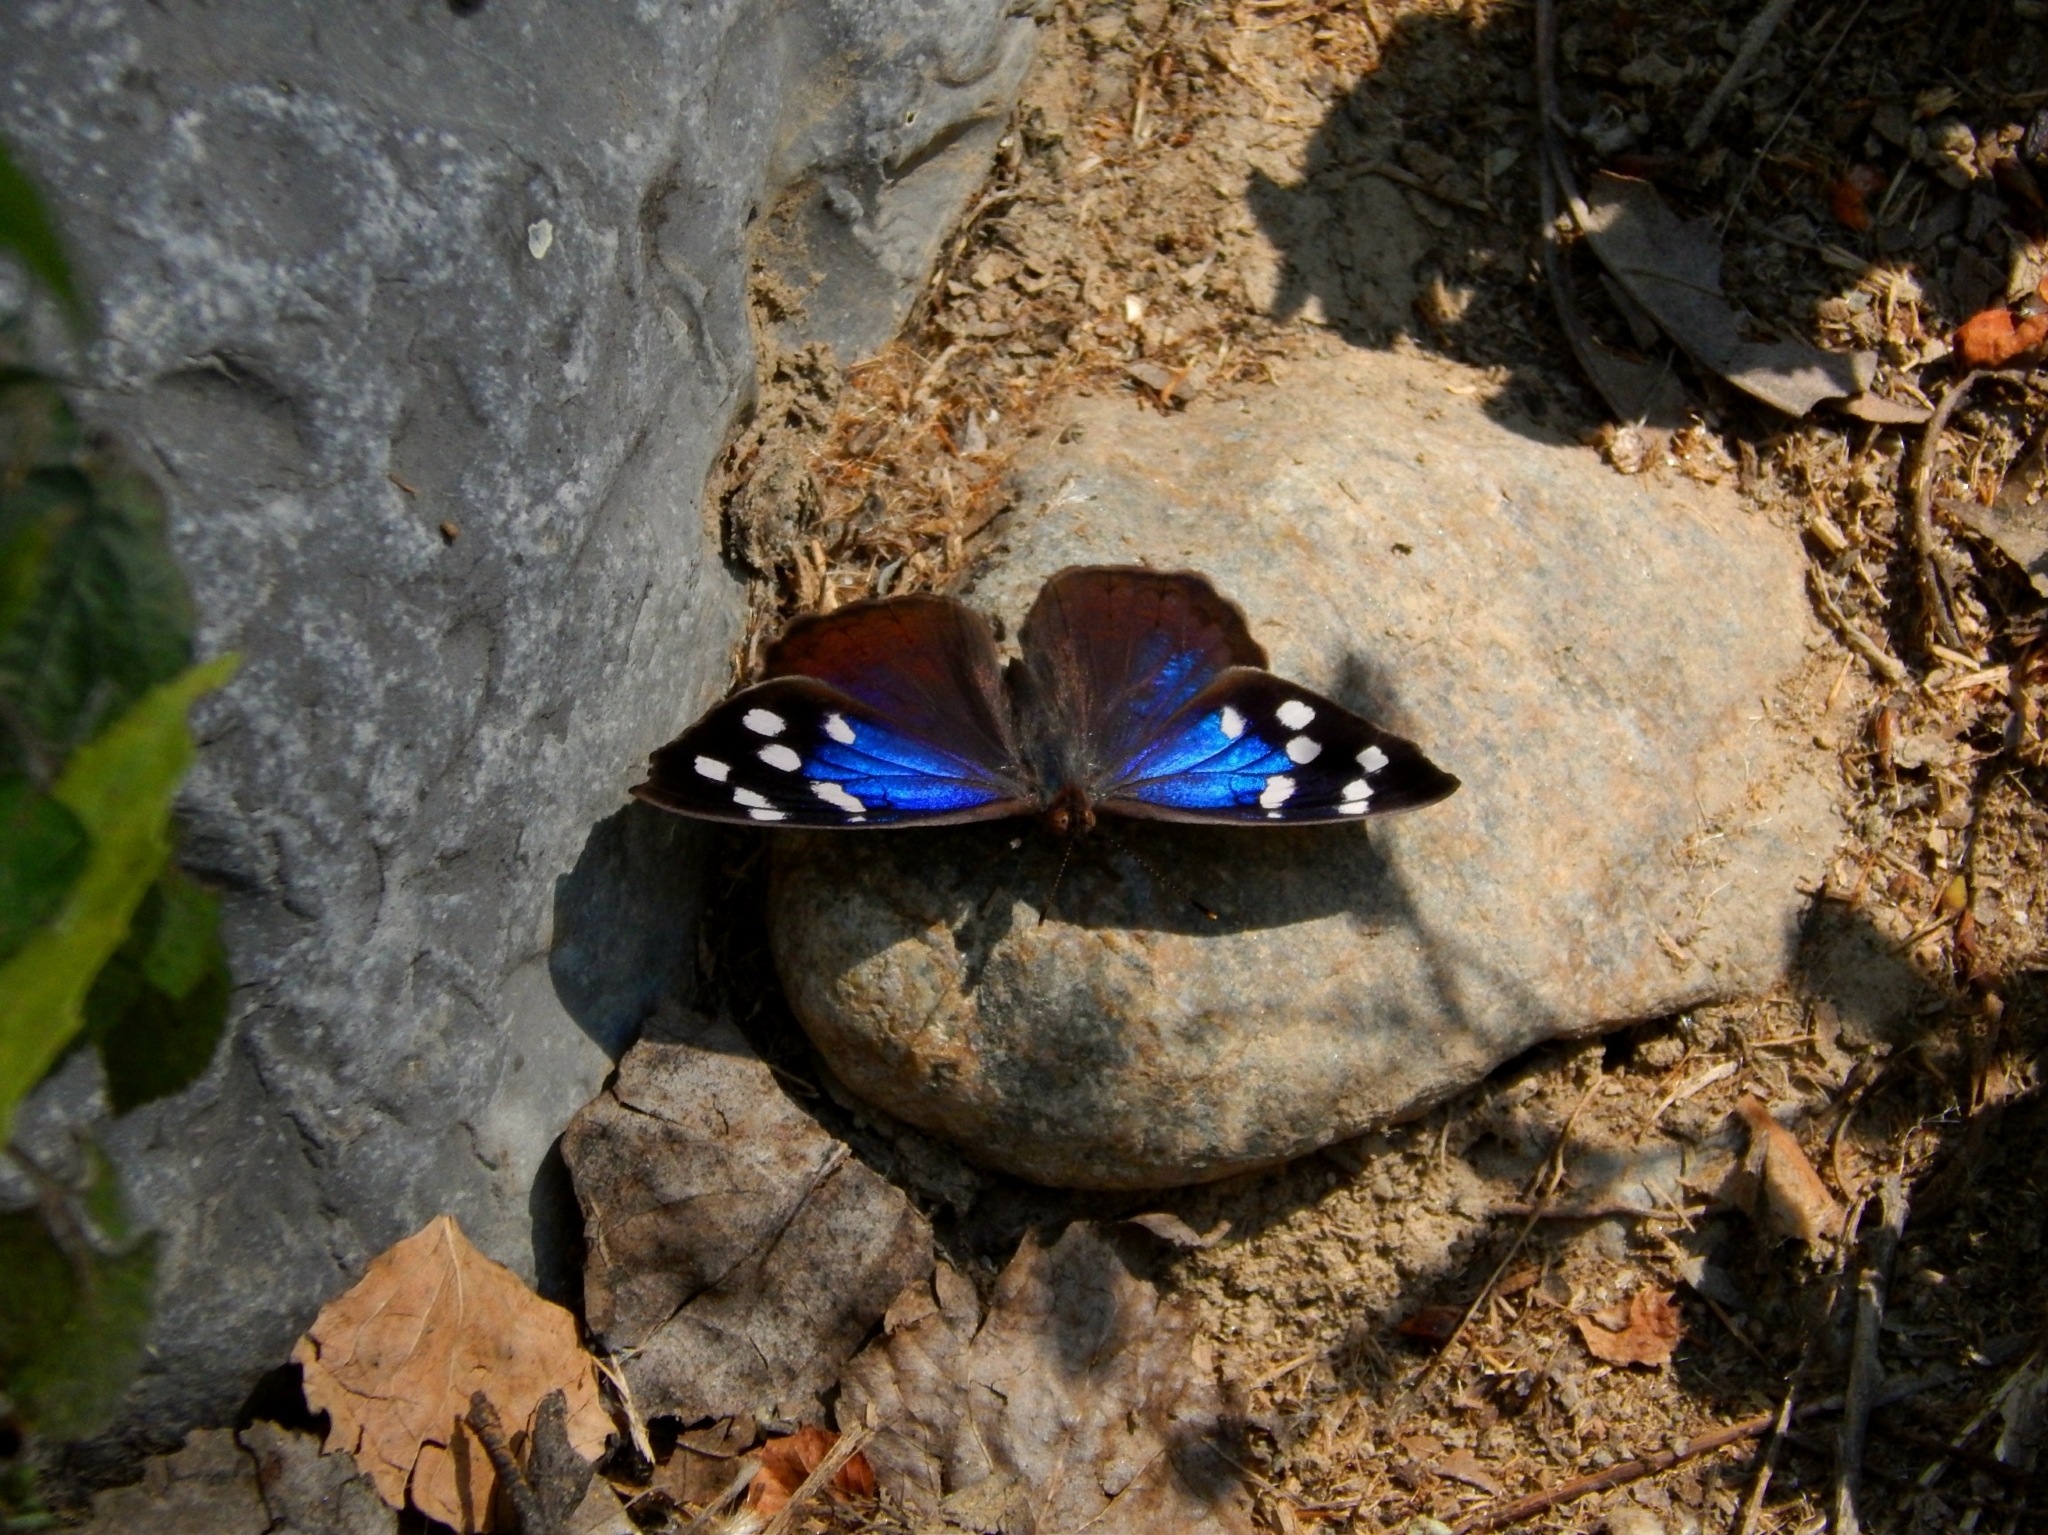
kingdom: Animalia
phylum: Arthropoda
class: Insecta
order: Lepidoptera
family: Nymphalidae
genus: Eunica
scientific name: Eunica tatila
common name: Florida purplewing
